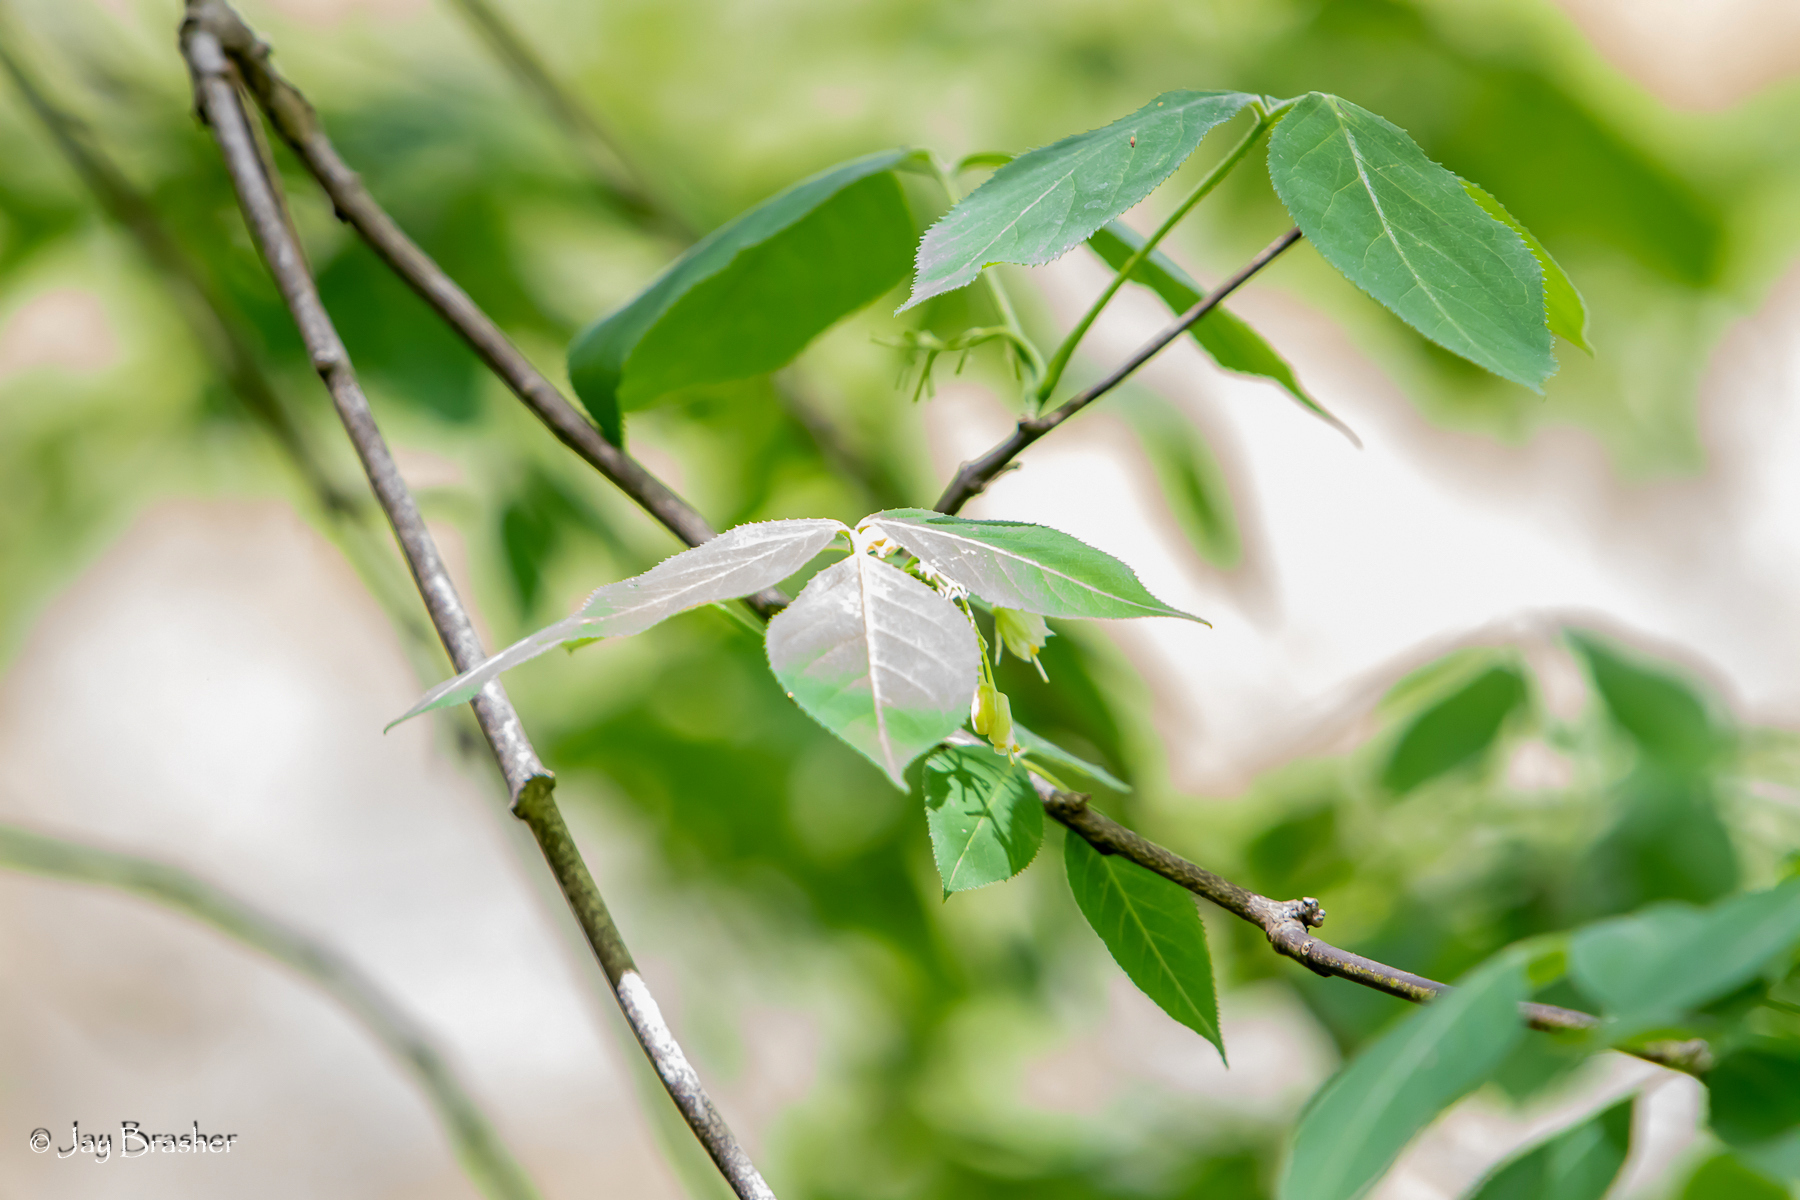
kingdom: Plantae
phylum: Tracheophyta
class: Magnoliopsida
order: Crossosomatales
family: Staphyleaceae
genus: Staphylea
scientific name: Staphylea trifolia
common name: American bladdernut
